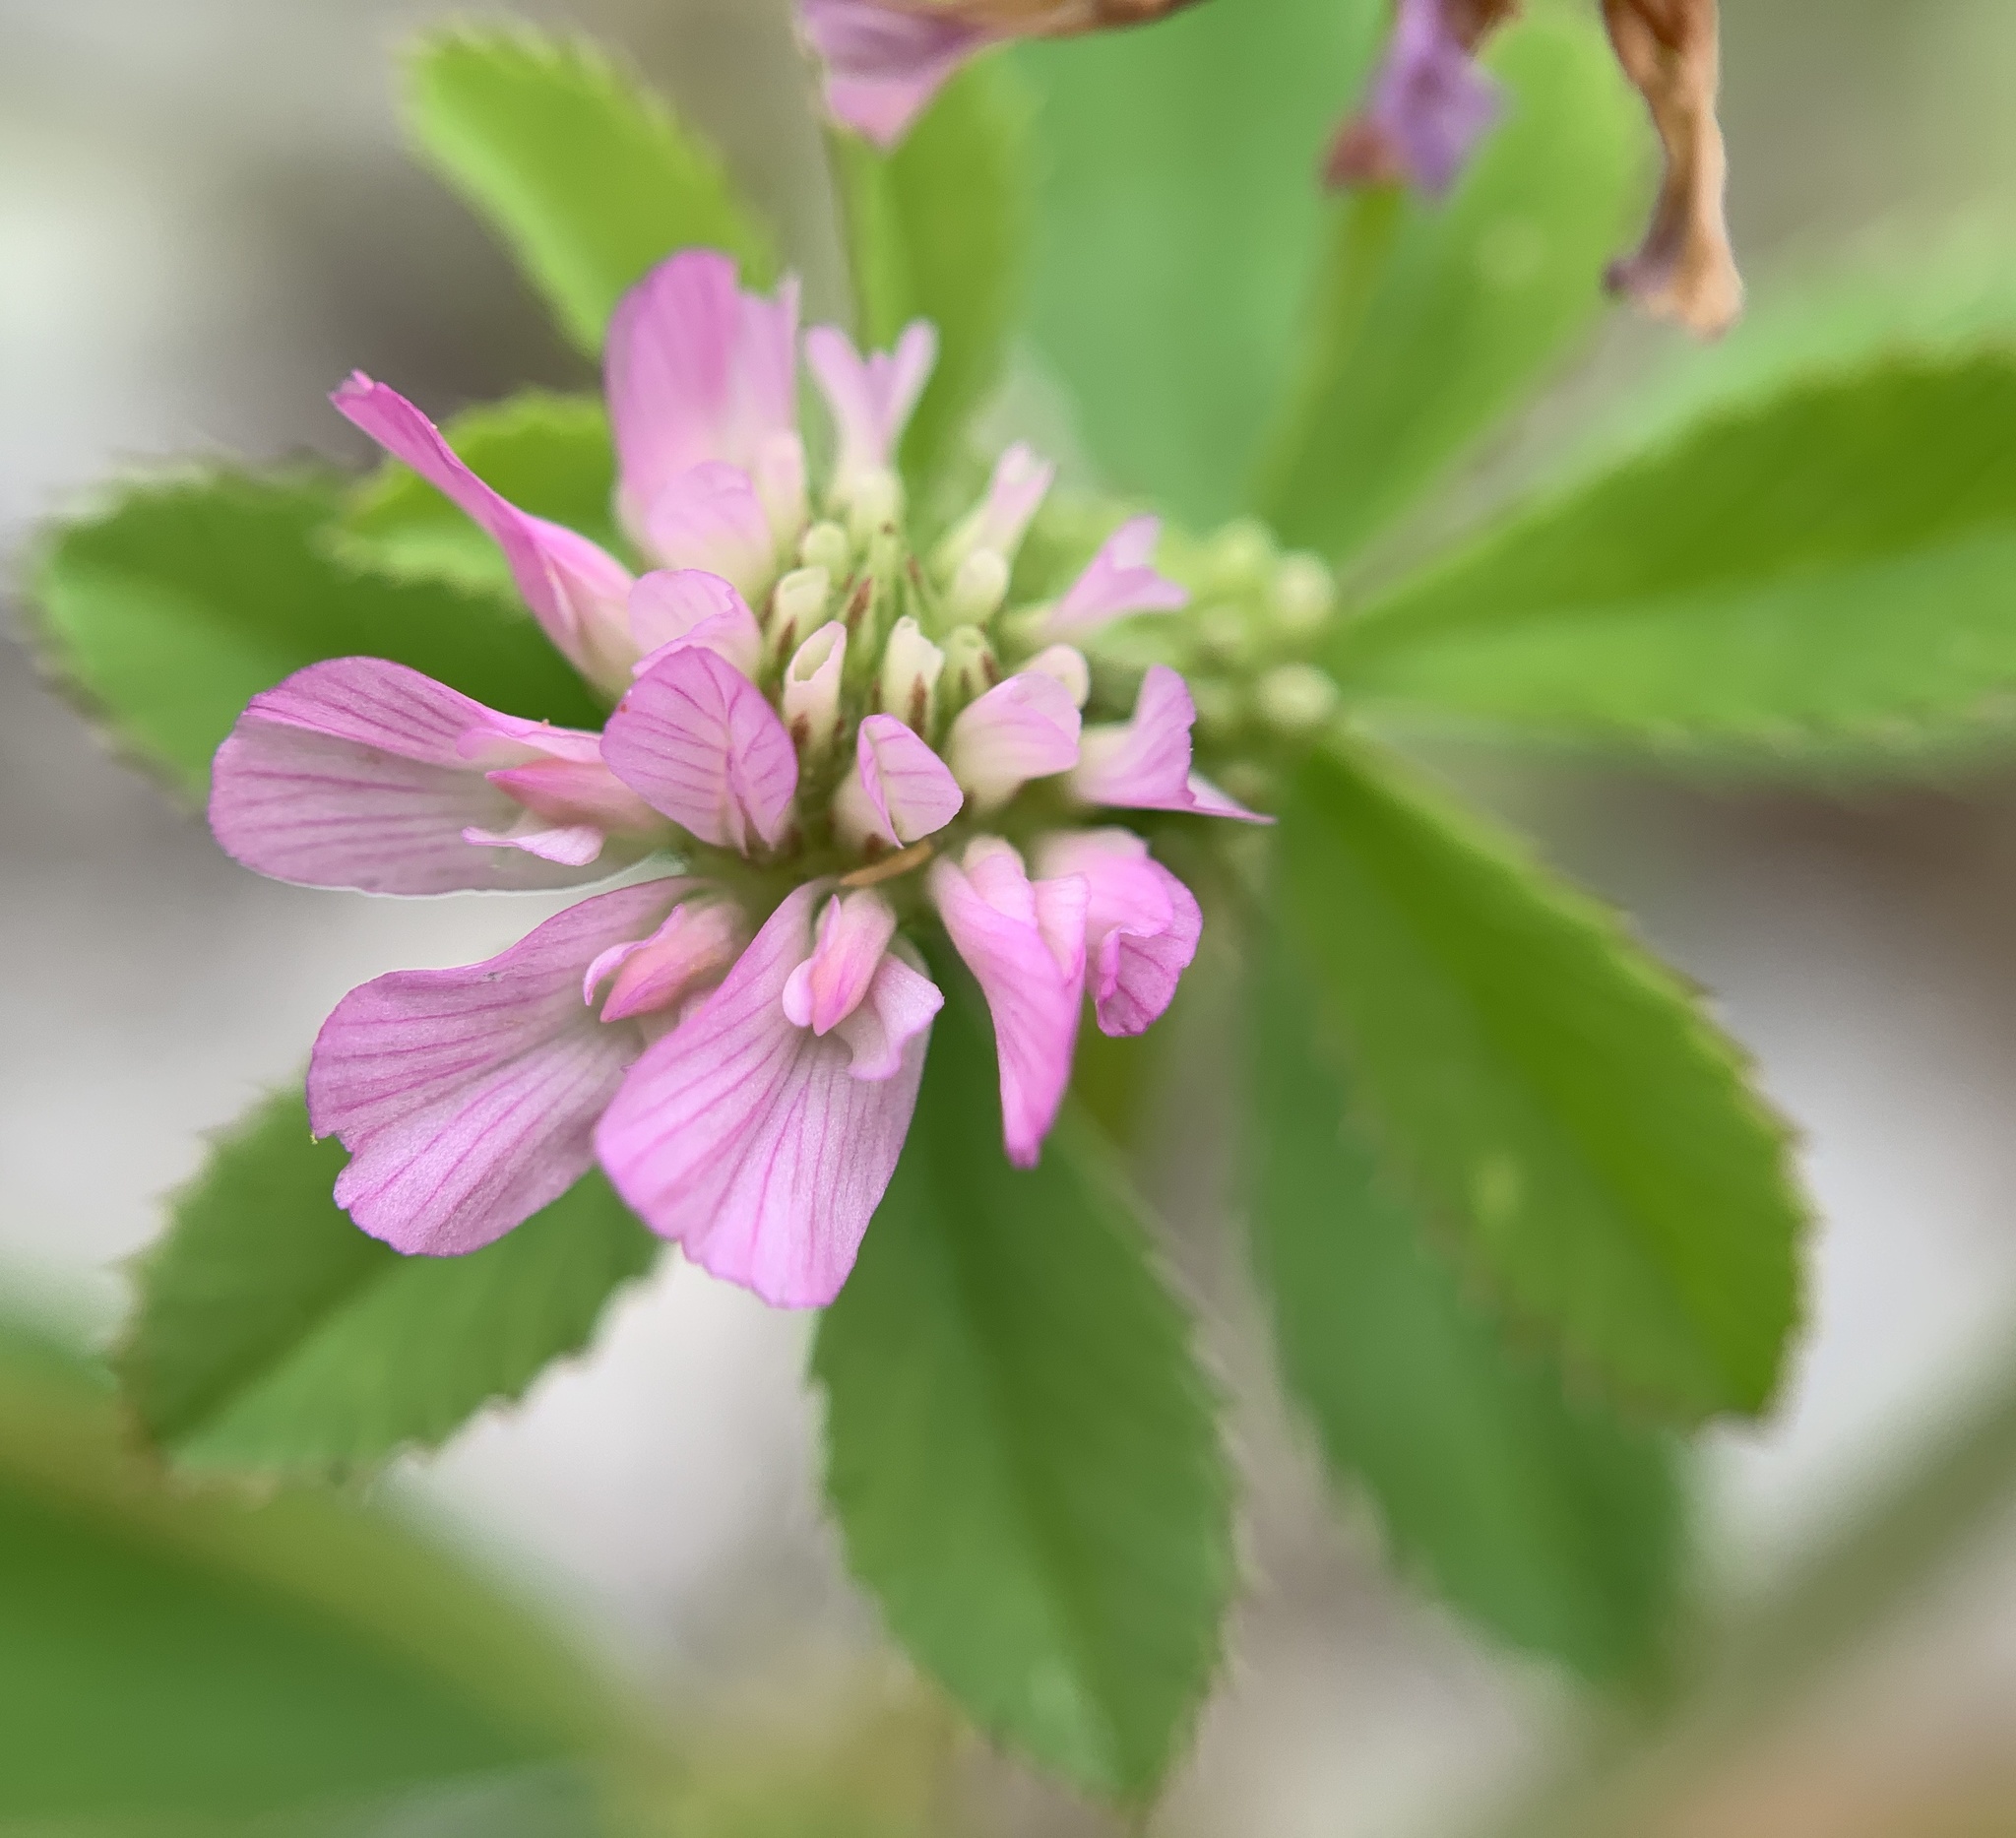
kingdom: Plantae
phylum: Tracheophyta
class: Magnoliopsida
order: Fabales
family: Fabaceae
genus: Trifolium
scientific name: Trifolium resupinatum
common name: Reversed clover
